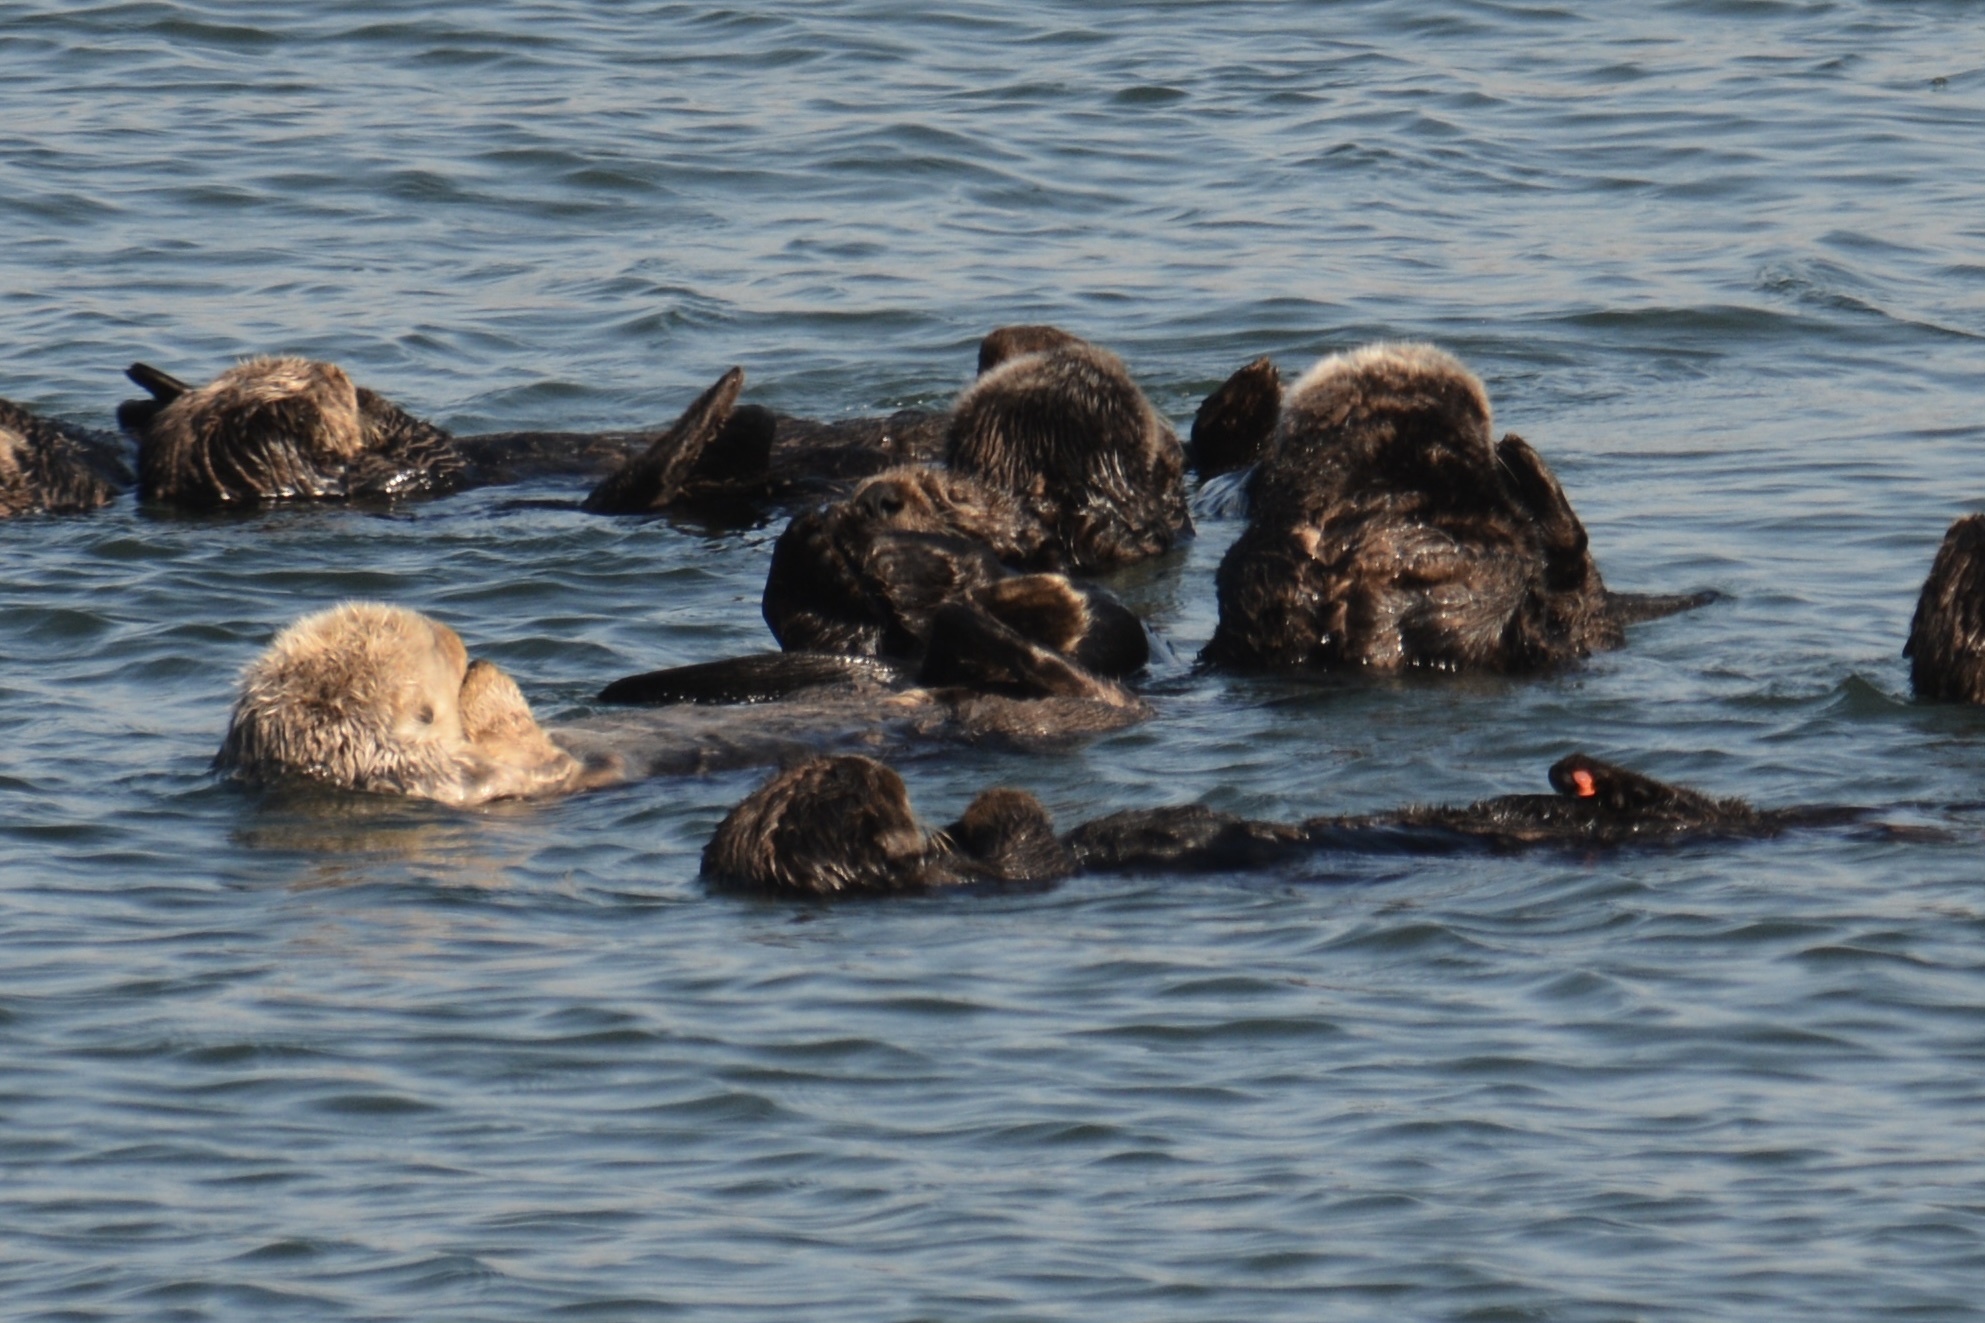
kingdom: Animalia
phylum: Chordata
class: Mammalia
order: Carnivora
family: Mustelidae
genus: Enhydra
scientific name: Enhydra lutris
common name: Sea otter
